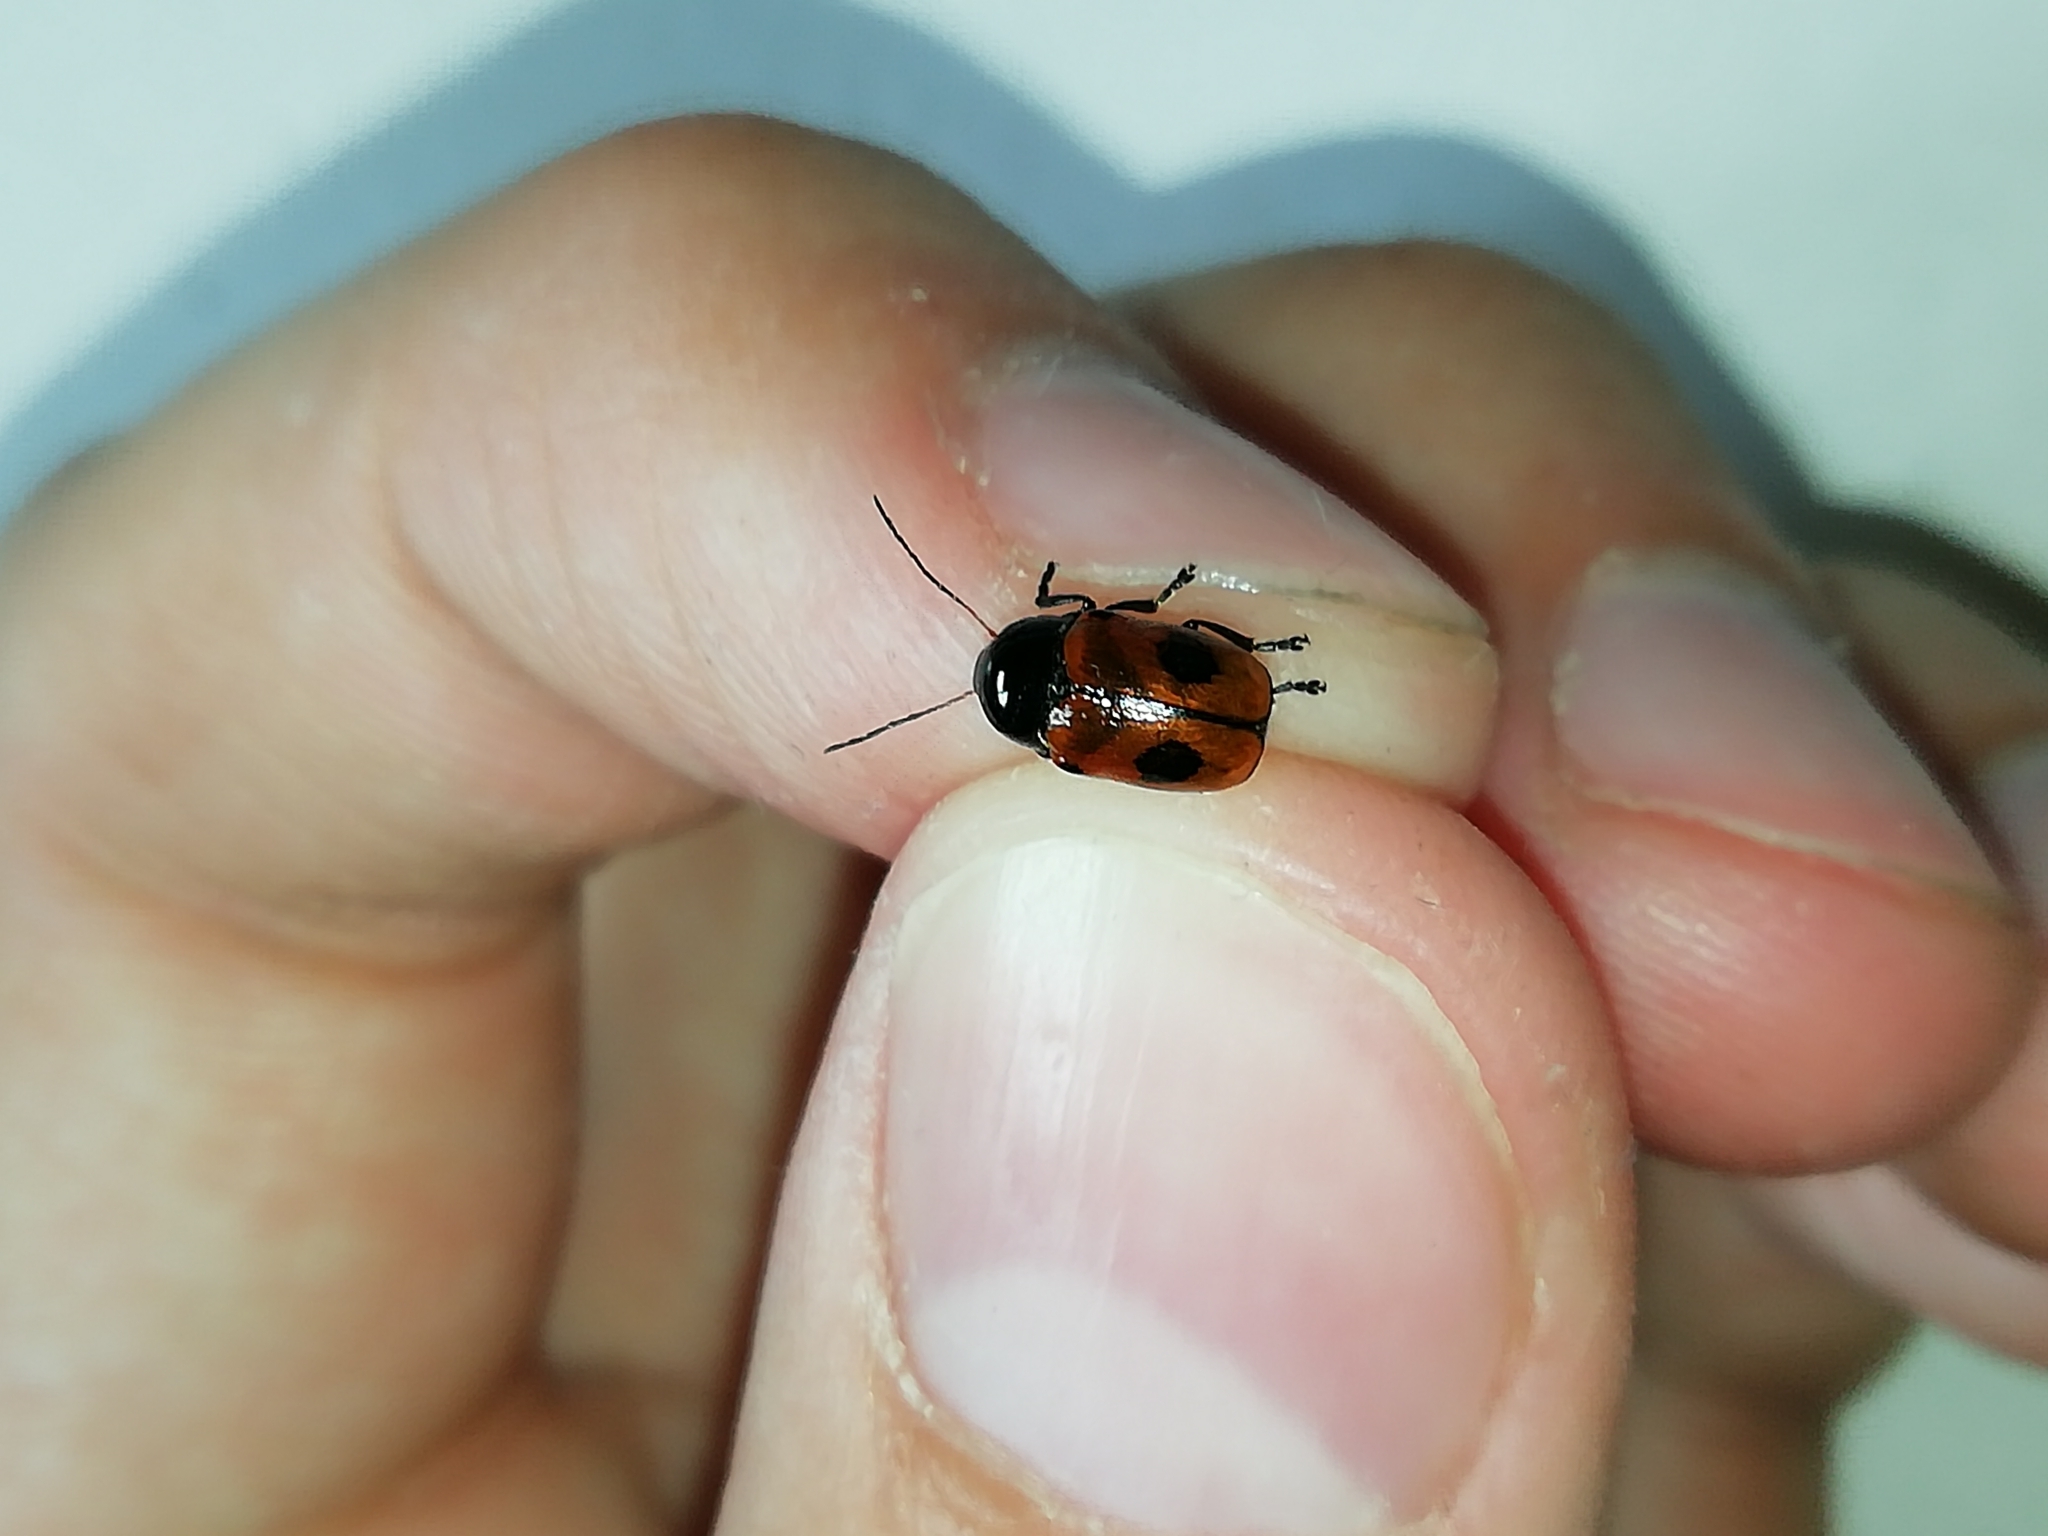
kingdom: Animalia
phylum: Arthropoda
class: Insecta
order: Coleoptera
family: Chrysomelidae
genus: Chiridopsis
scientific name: Chiridopsis bipunctata
